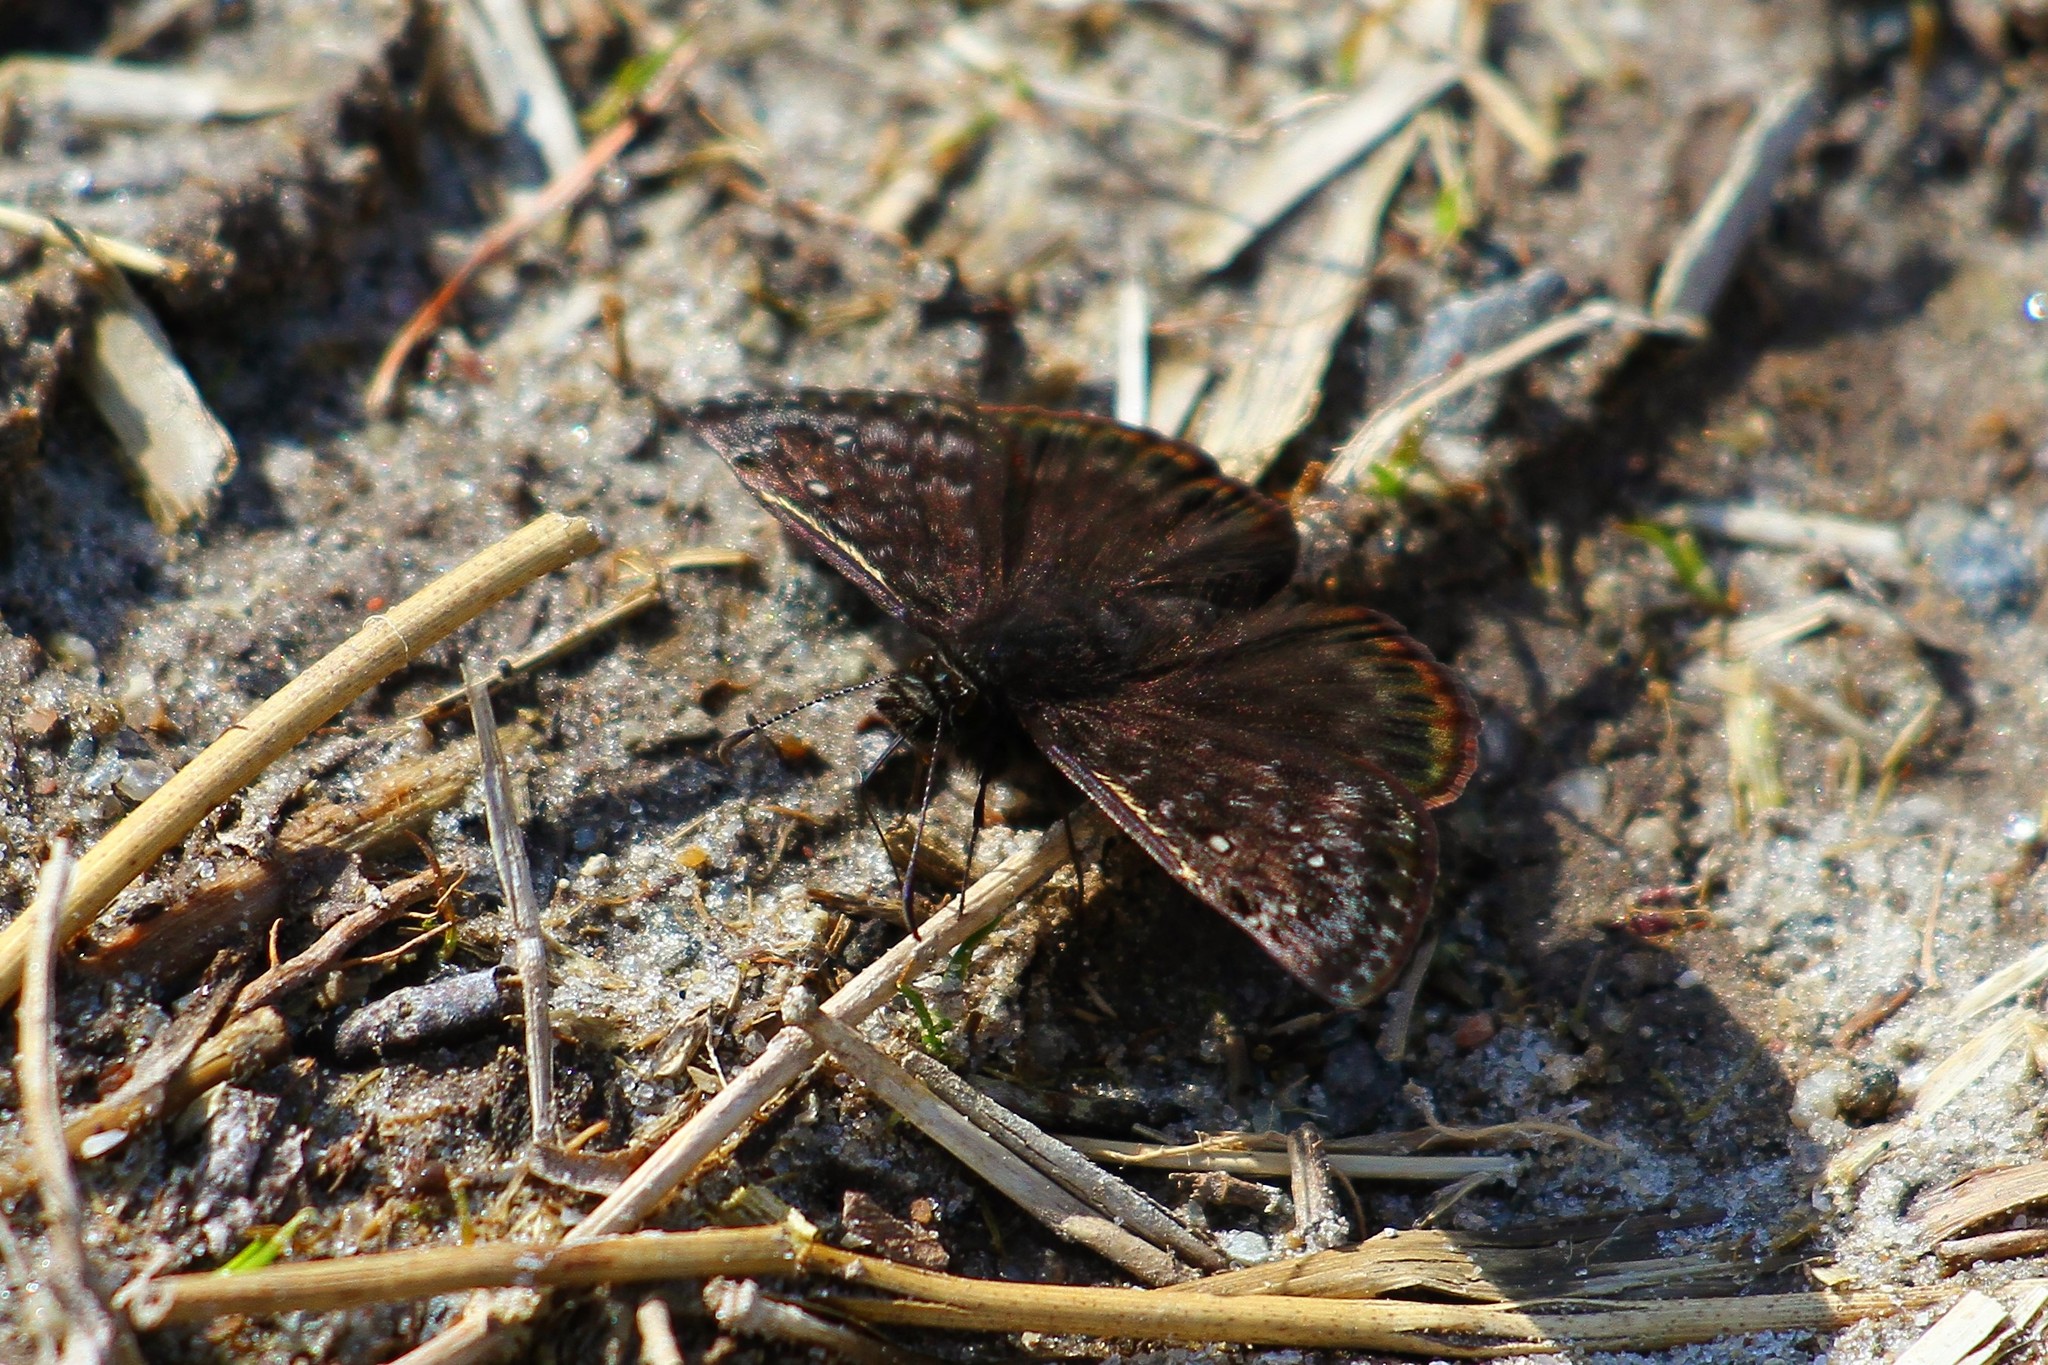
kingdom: Animalia
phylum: Arthropoda
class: Insecta
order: Lepidoptera
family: Hesperiidae
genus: Erynnis
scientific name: Erynnis juvenalis
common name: Juvenal's duskywing
